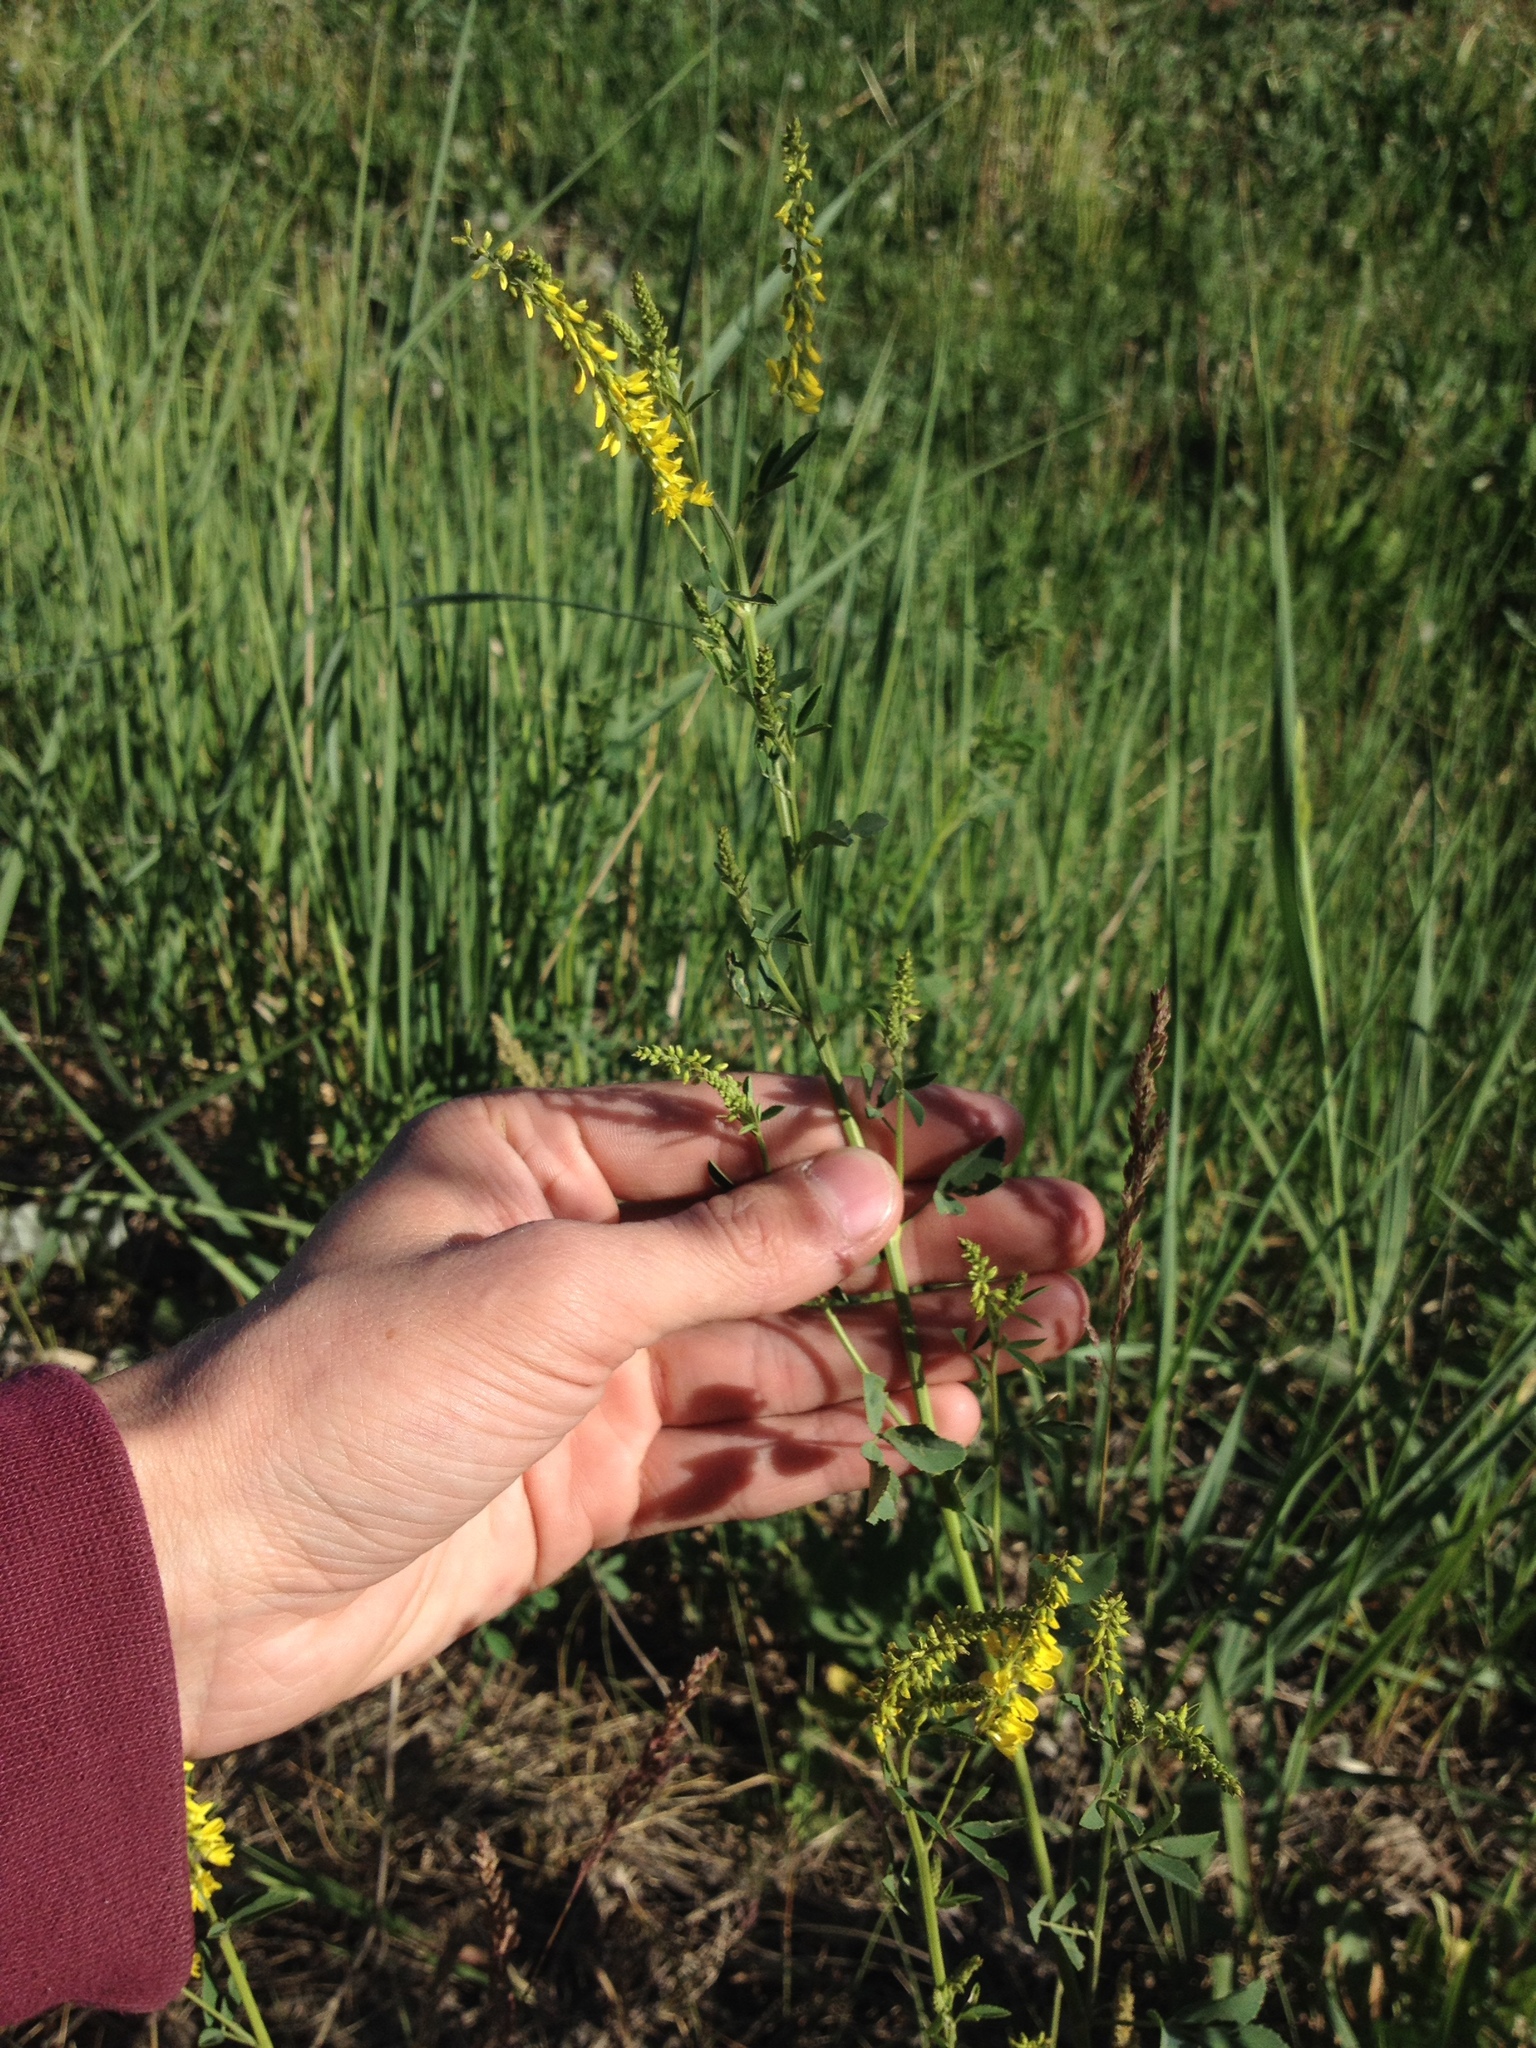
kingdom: Plantae
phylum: Tracheophyta
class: Magnoliopsida
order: Fabales
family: Fabaceae
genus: Melilotus
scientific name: Melilotus officinalis
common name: Sweetclover
